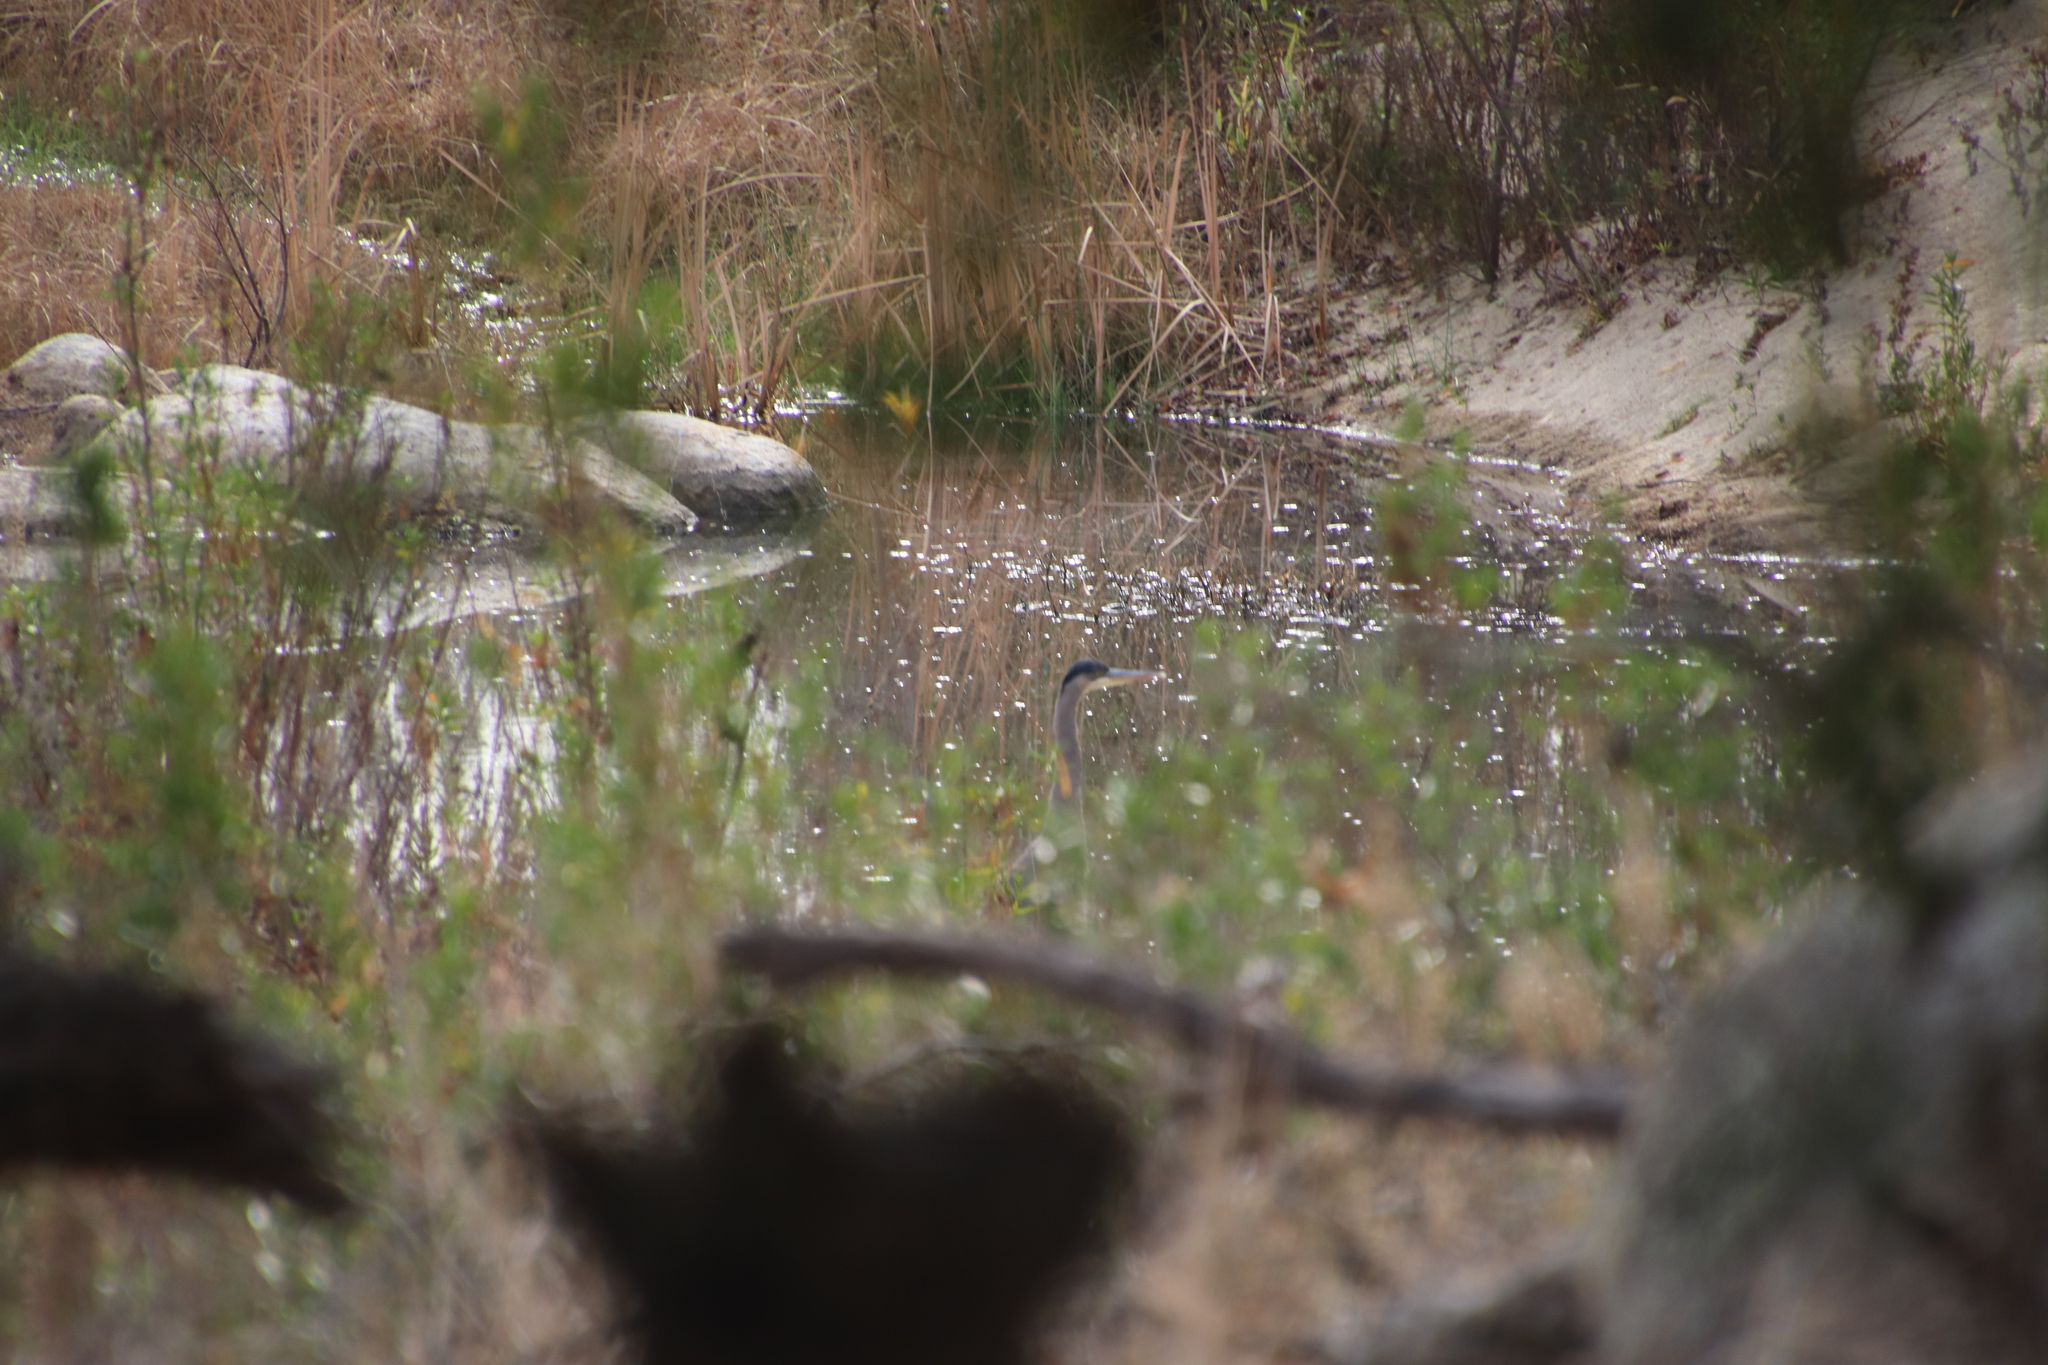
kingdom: Animalia
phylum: Chordata
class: Aves
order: Pelecaniformes
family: Ardeidae
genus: Ardea
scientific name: Ardea herodias
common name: Great blue heron
